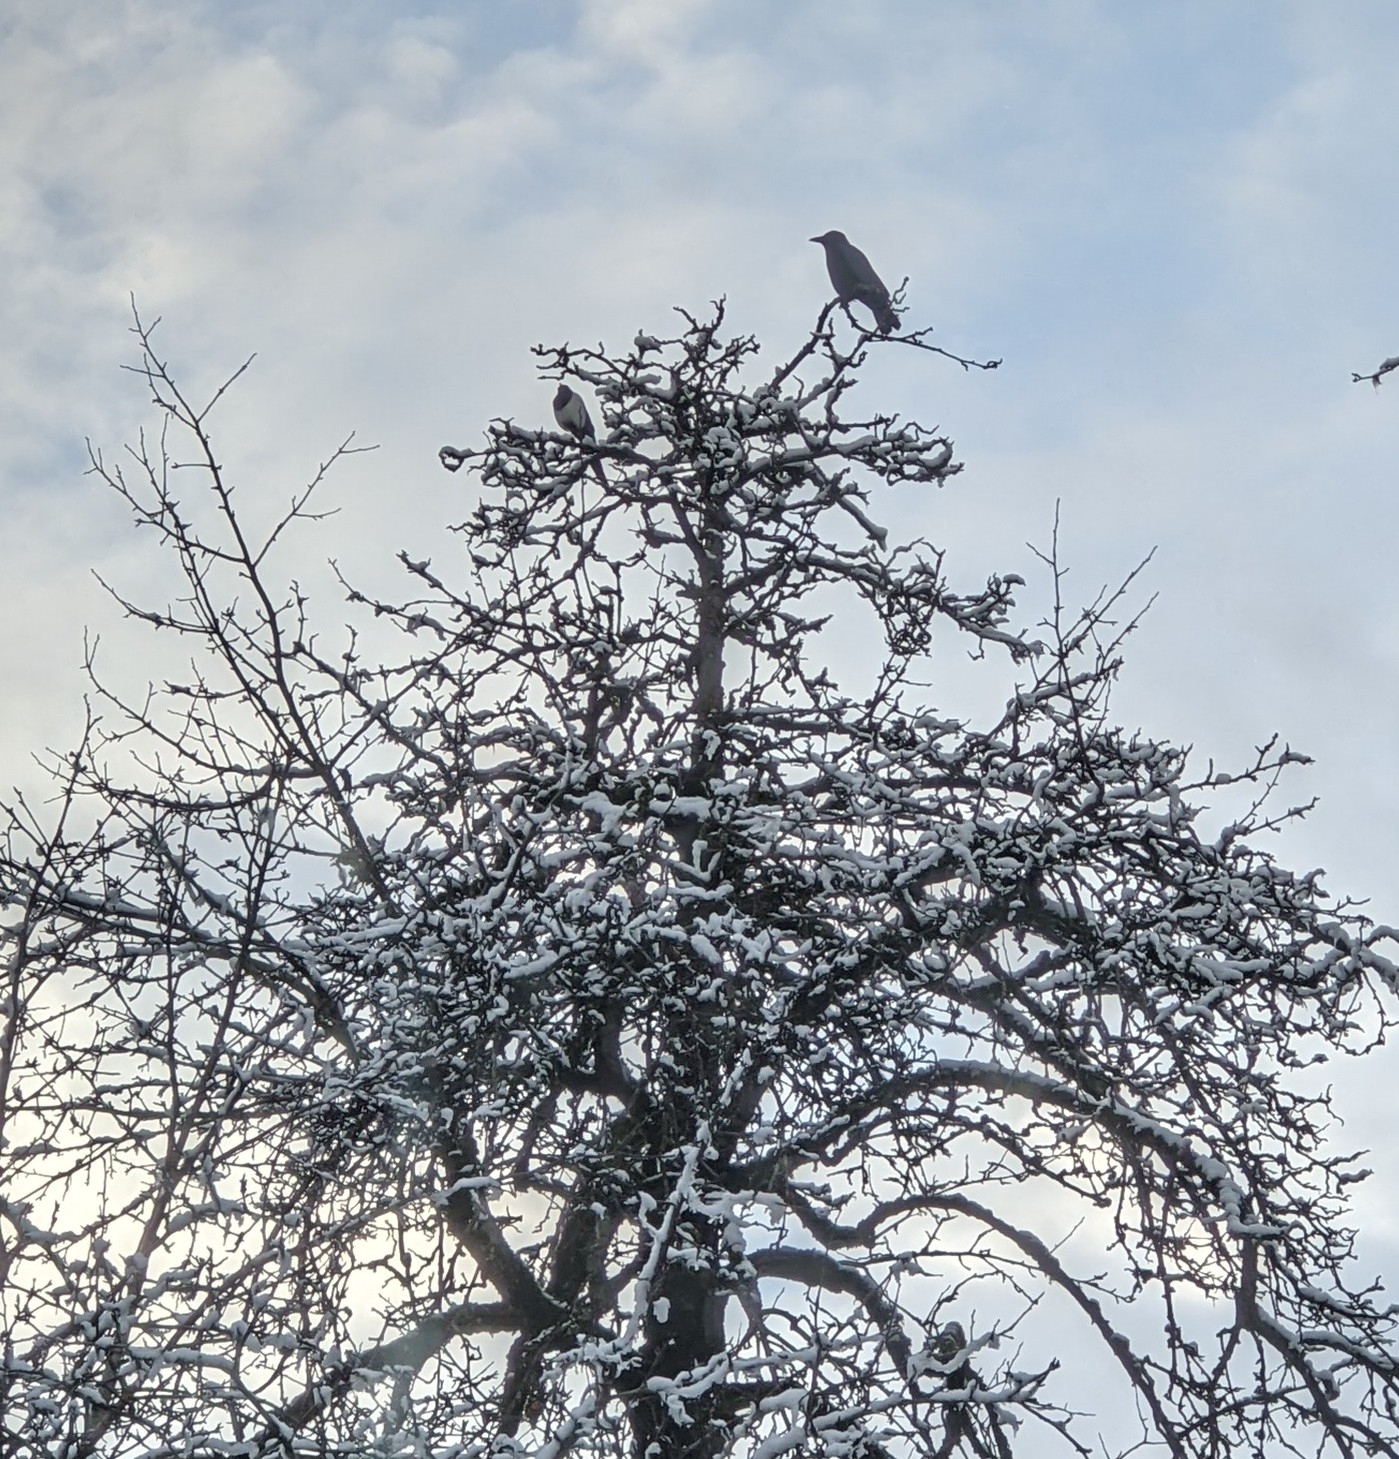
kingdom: Animalia
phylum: Chordata
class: Aves
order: Passeriformes
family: Corvidae
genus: Pica
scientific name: Pica pica
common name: Eurasian magpie
